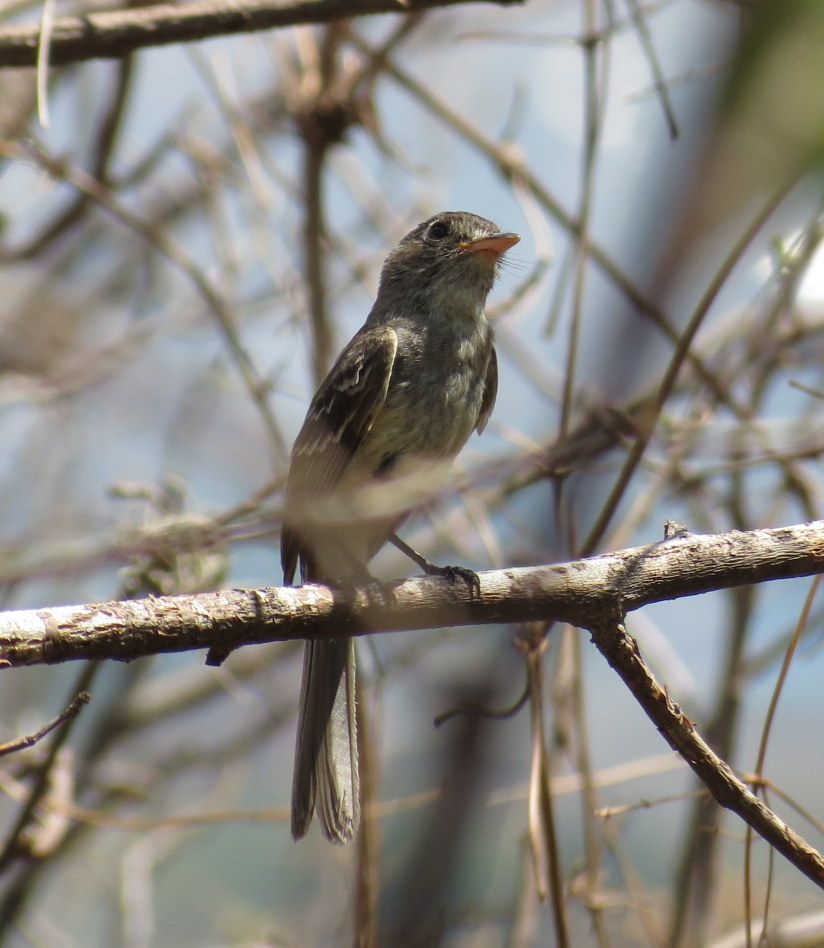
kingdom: Animalia
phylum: Chordata
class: Aves
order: Passeriformes
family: Tyrannidae
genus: Xenotriccus
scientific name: Xenotriccus mexicanus
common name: Pileated flycatcher
